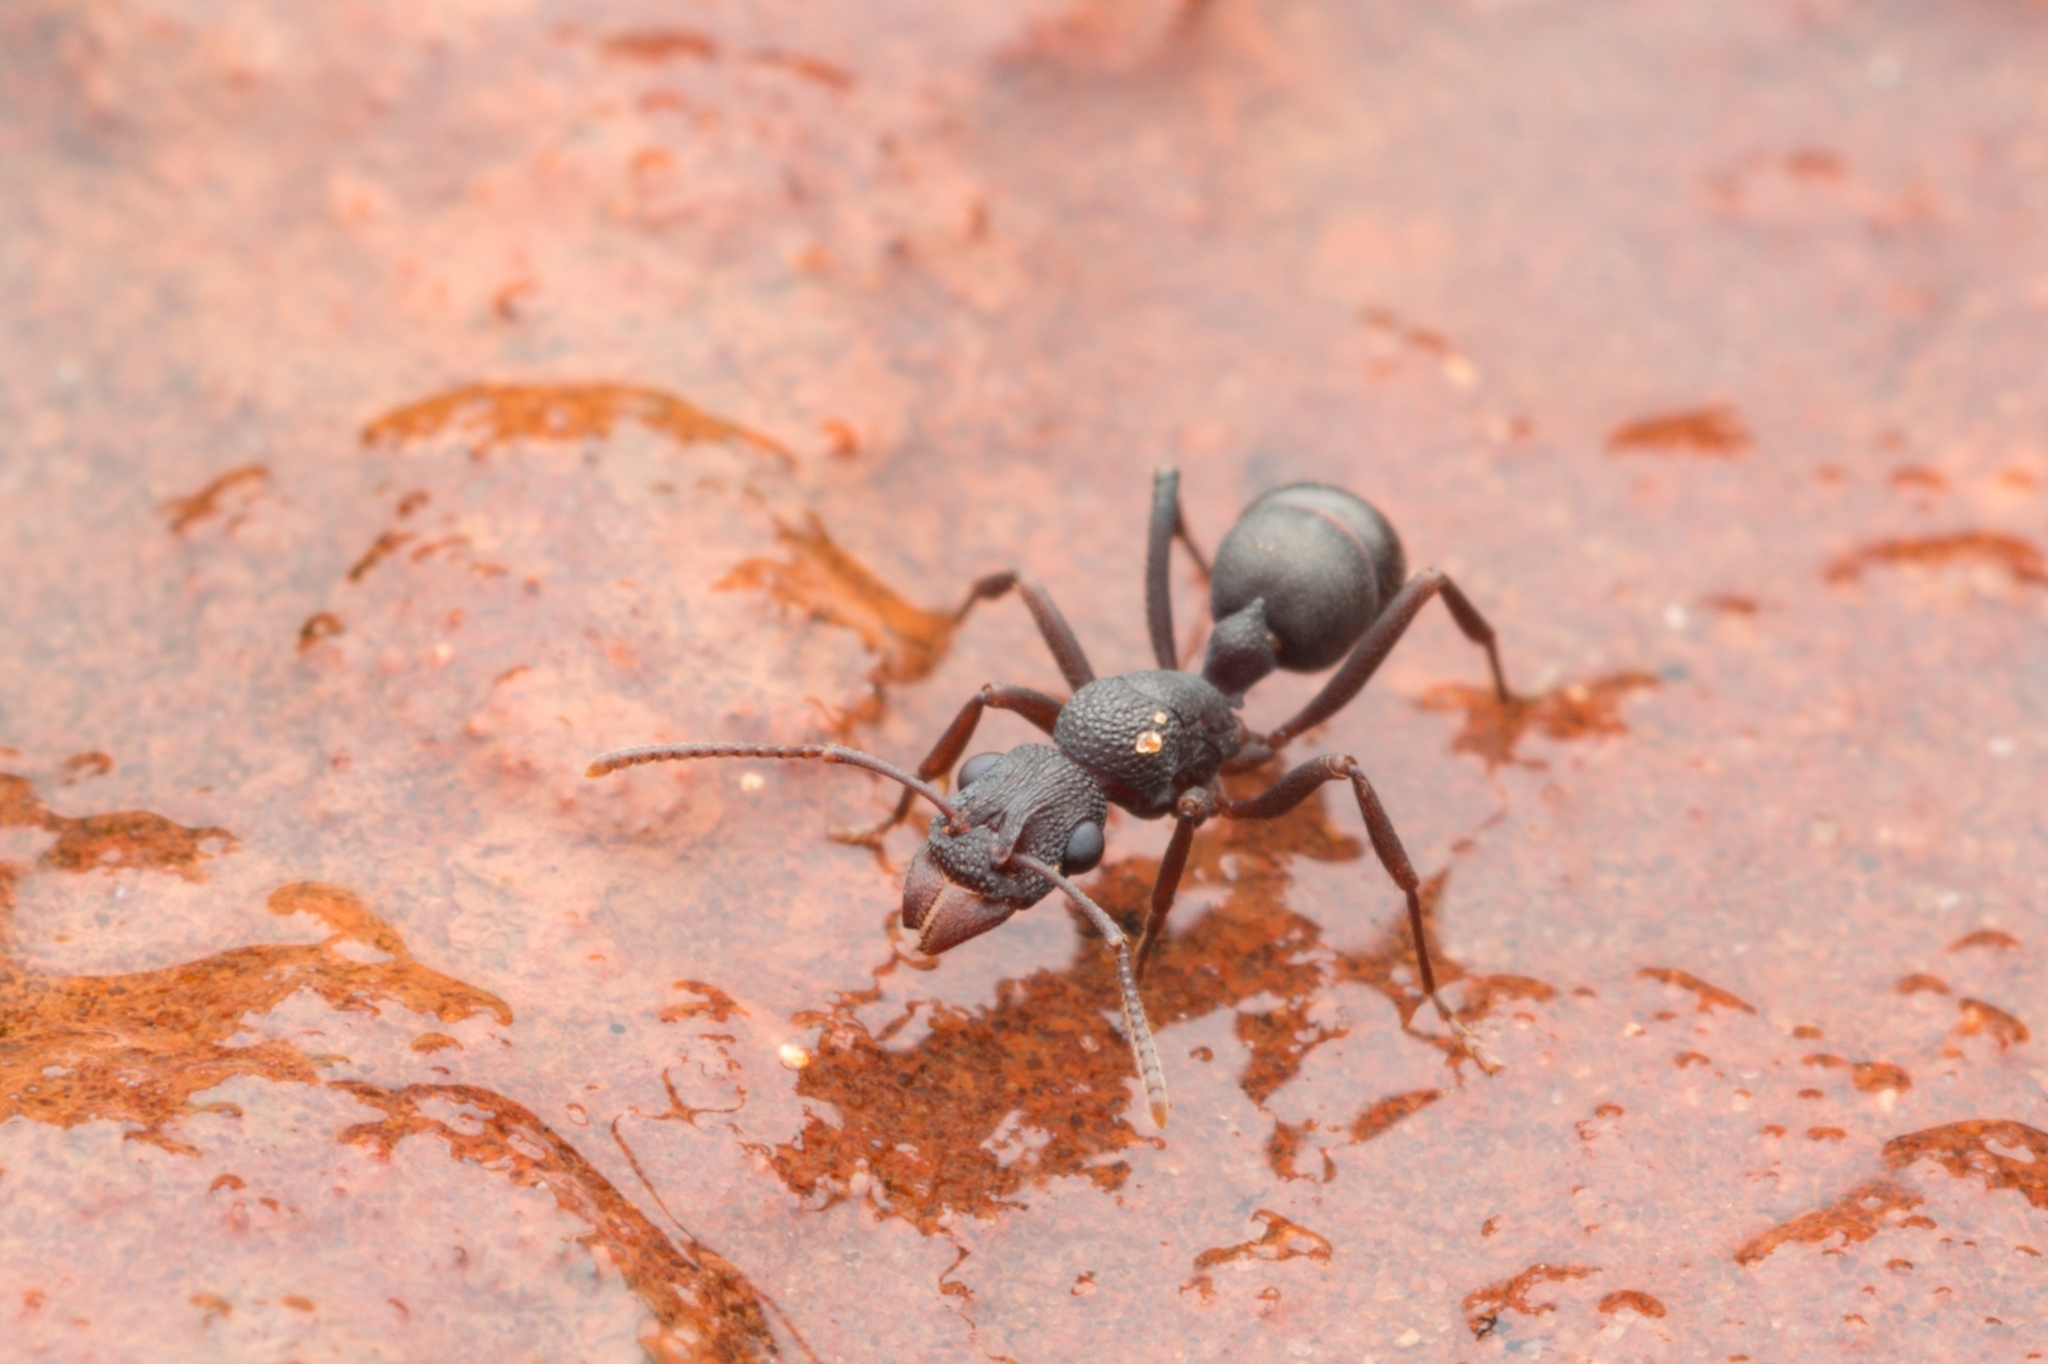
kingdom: Animalia
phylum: Arthropoda
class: Insecta
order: Hymenoptera
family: Formicidae
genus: Rhytidoponera
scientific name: Rhytidoponera tyloxys
